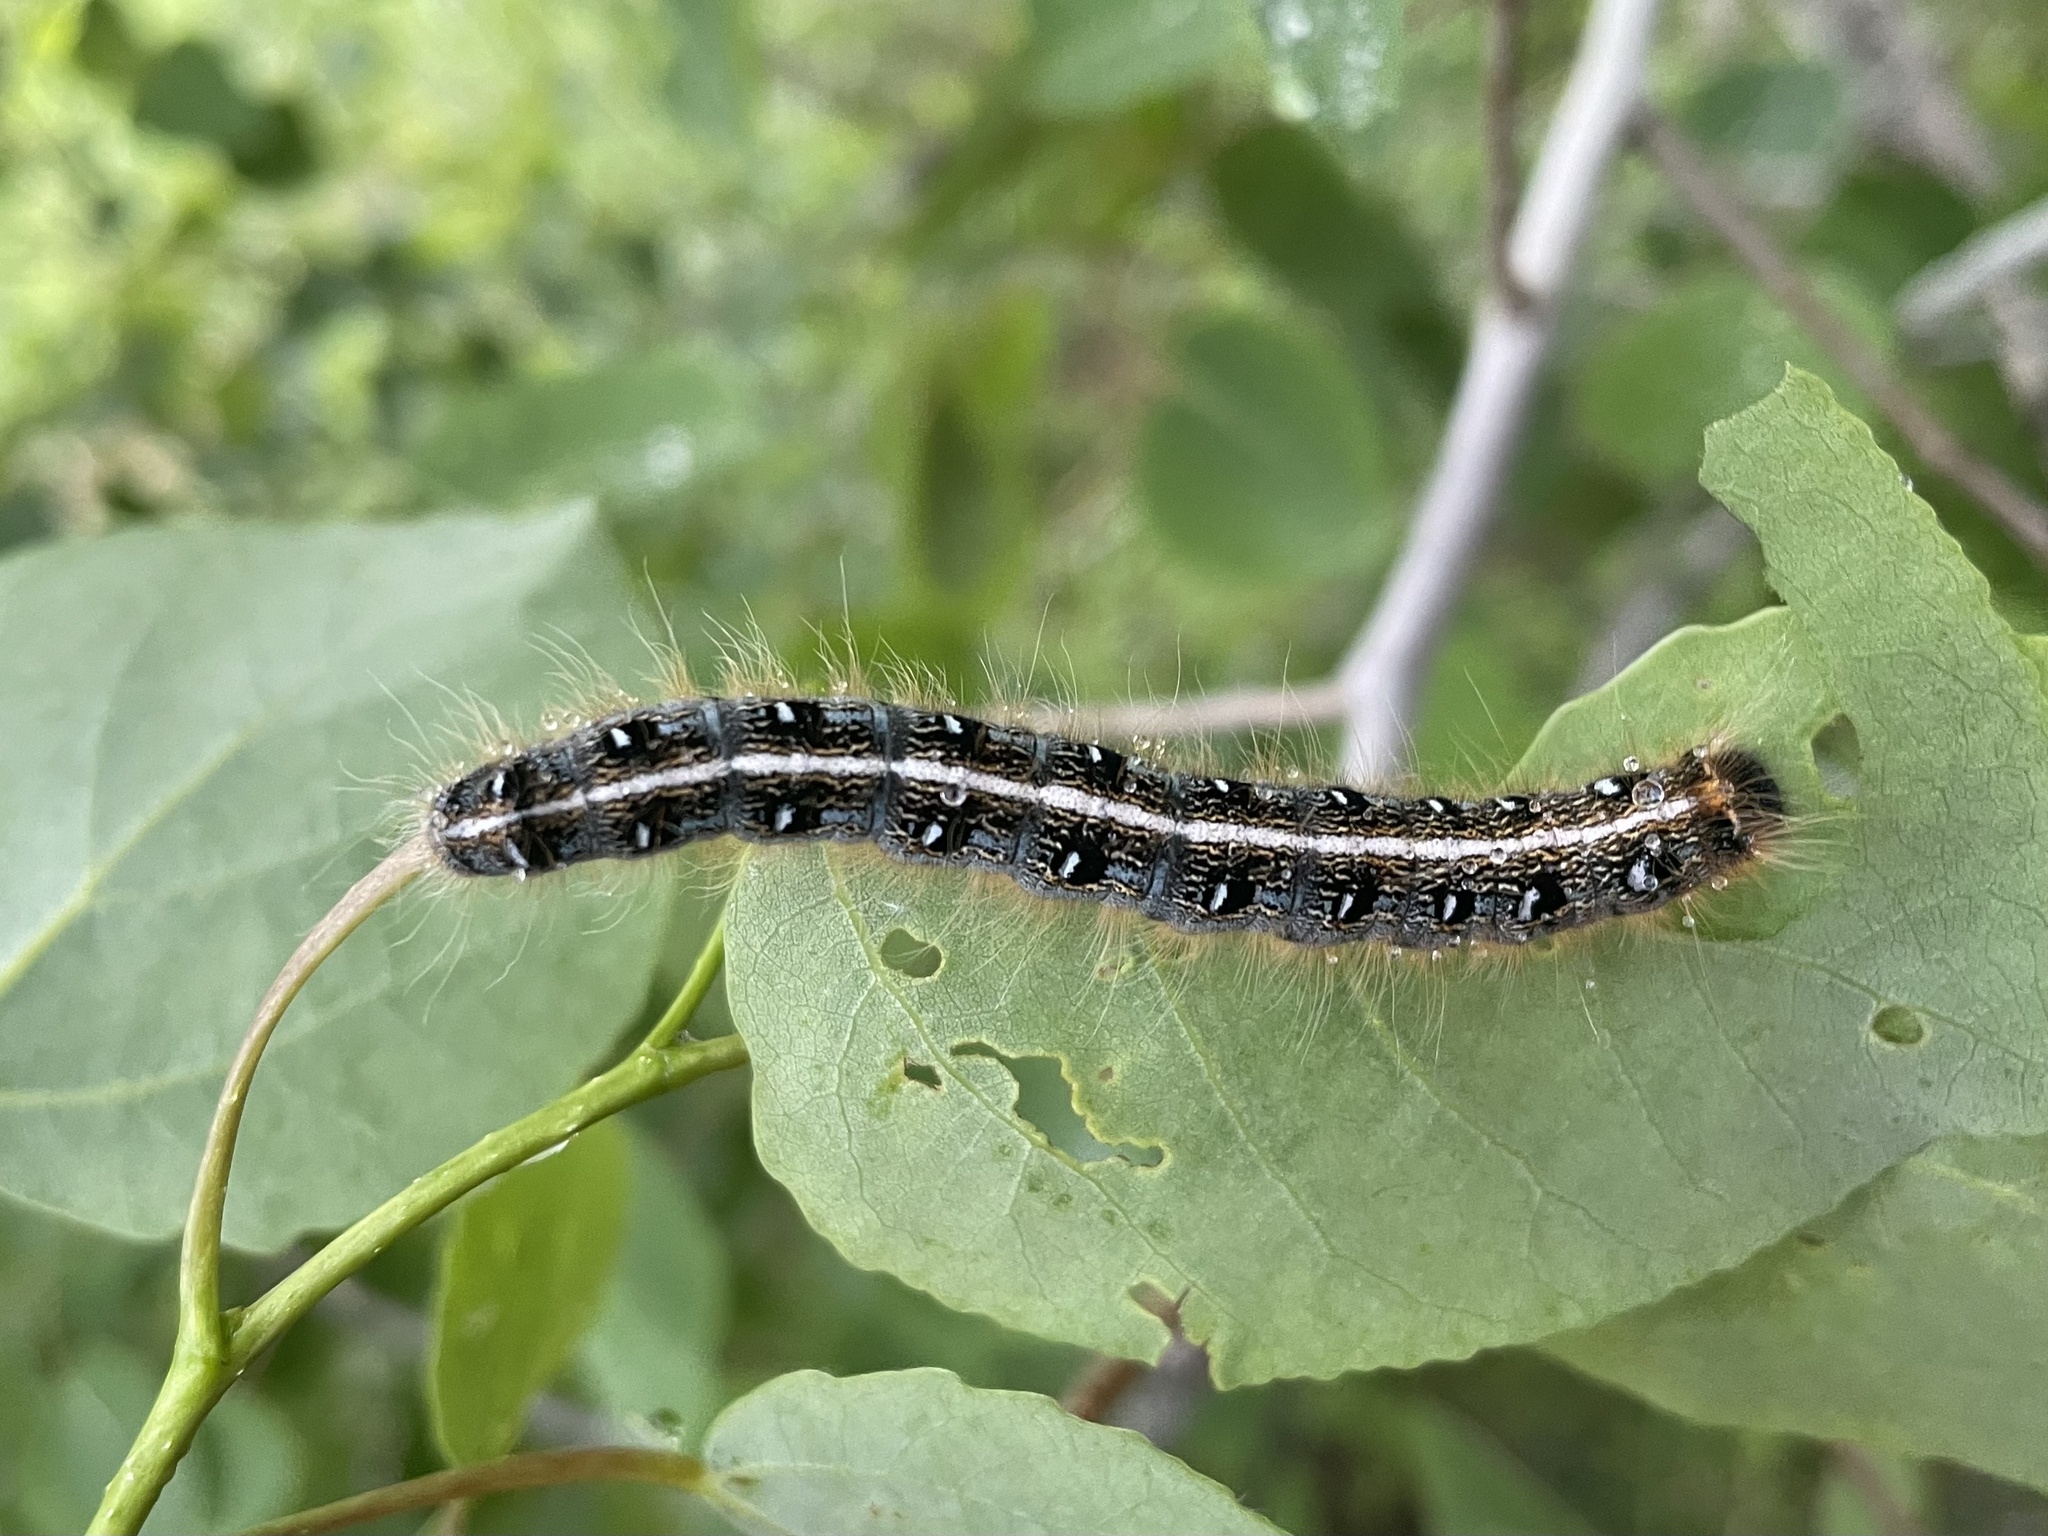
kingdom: Animalia
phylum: Arthropoda
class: Insecta
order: Lepidoptera
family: Lasiocampidae
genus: Malacosoma
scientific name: Malacosoma americana
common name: Eastern tent caterpillar moth
